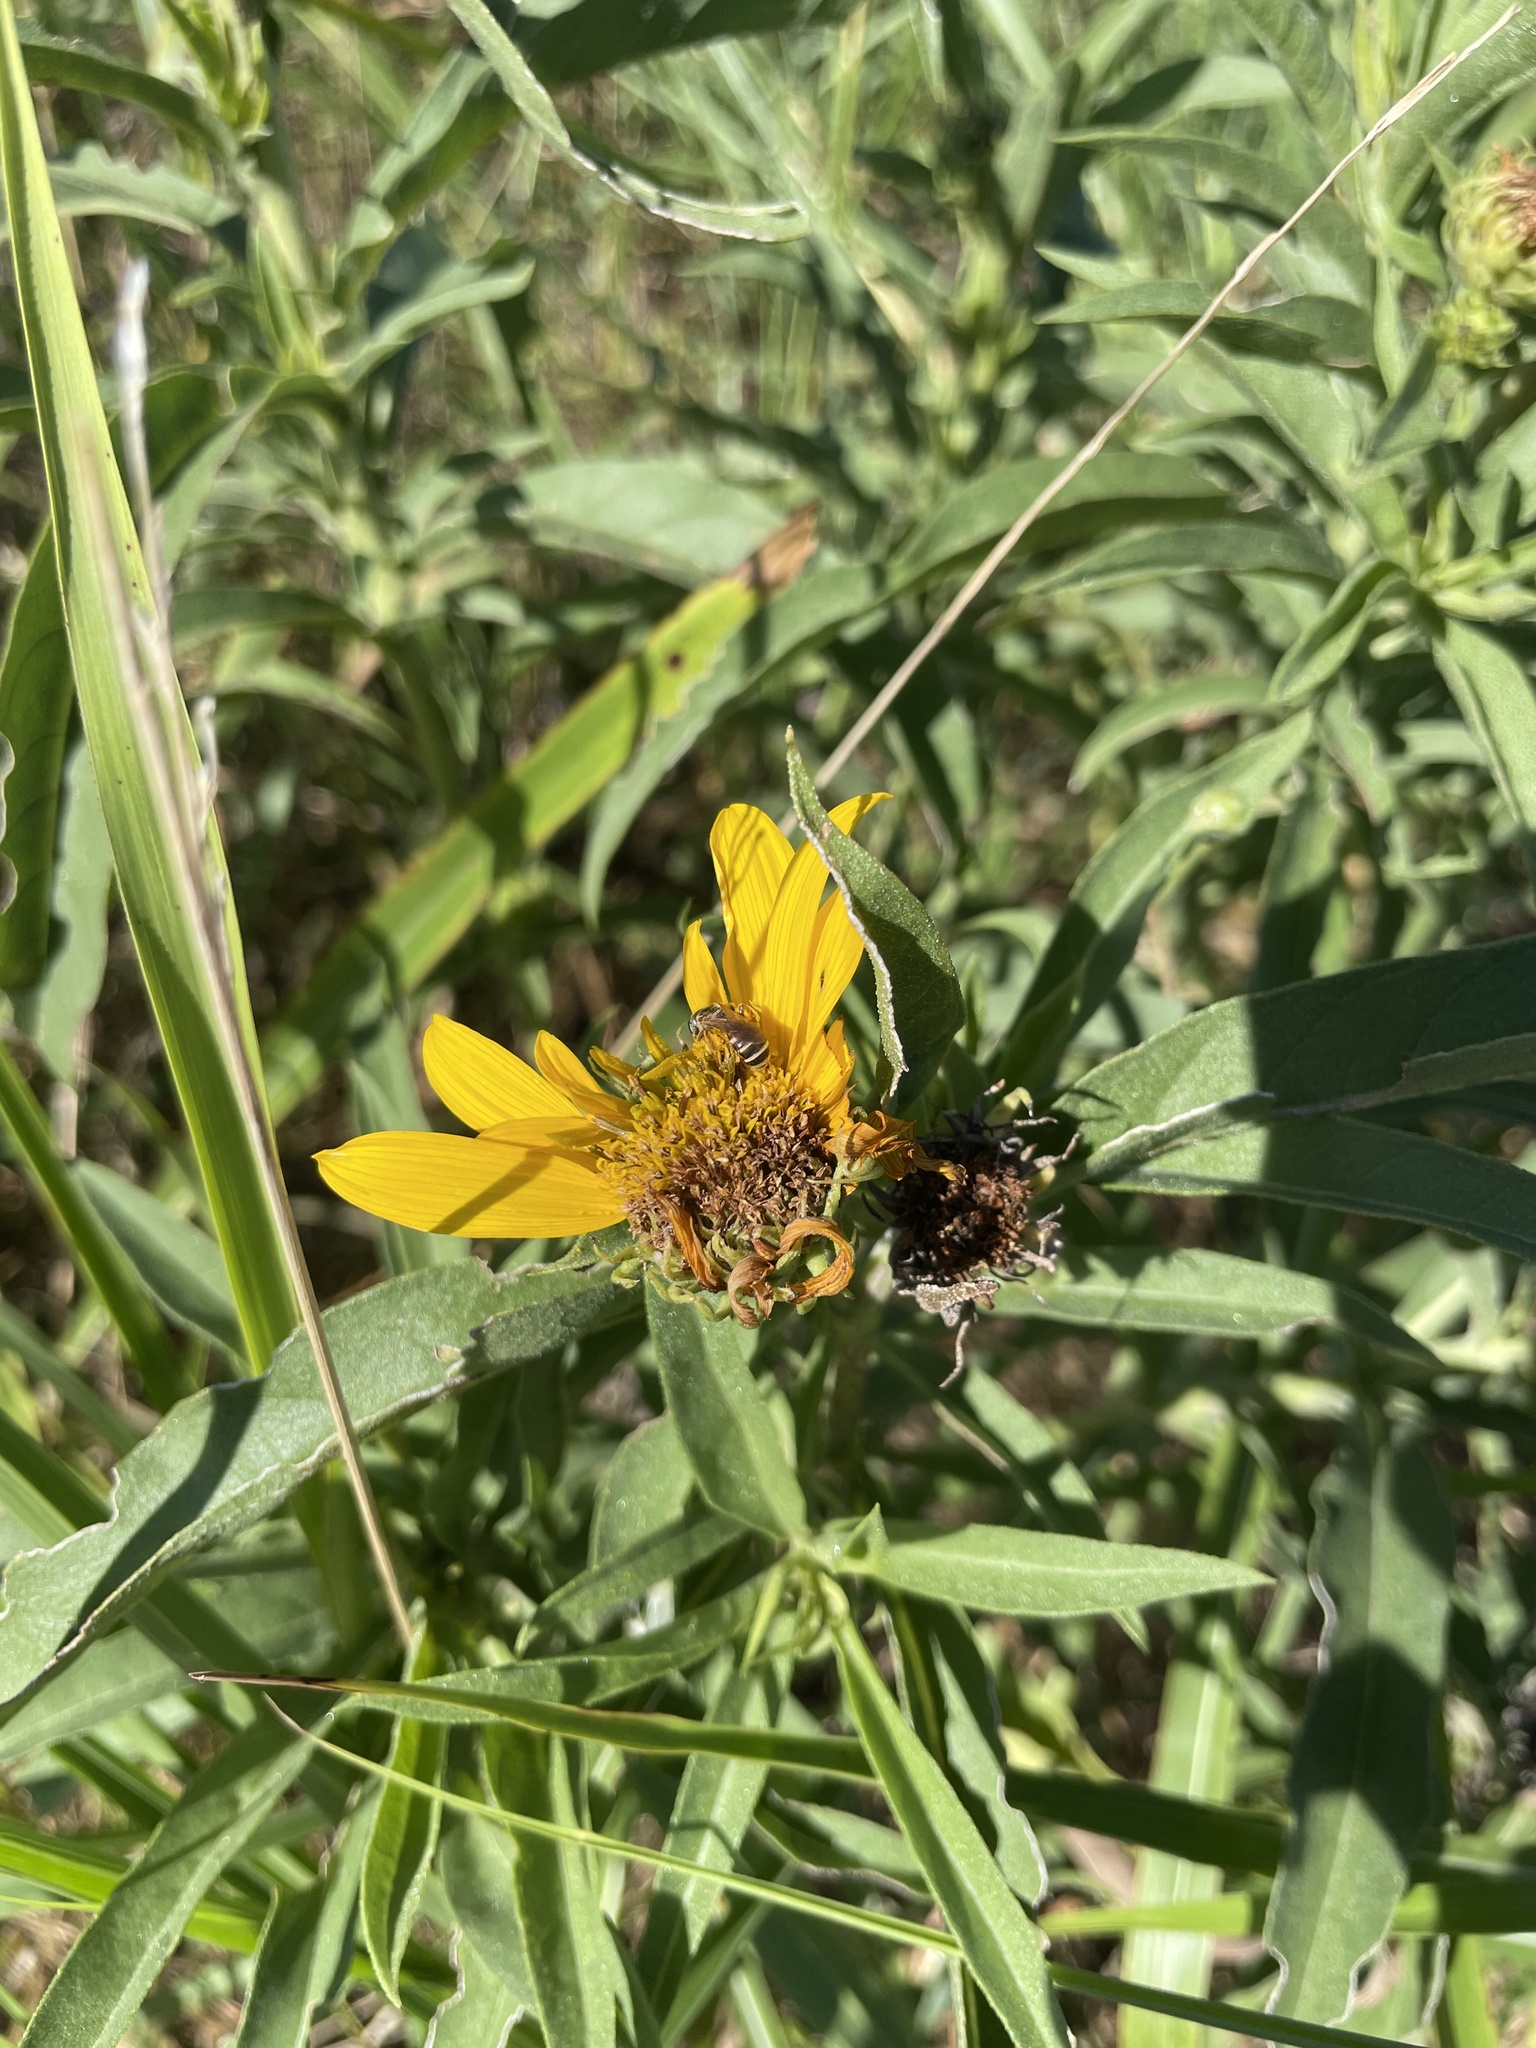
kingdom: Animalia
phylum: Arthropoda
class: Insecta
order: Hymenoptera
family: Halictidae
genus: Halictus
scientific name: Halictus ligatus
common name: Ligated furrow bee
